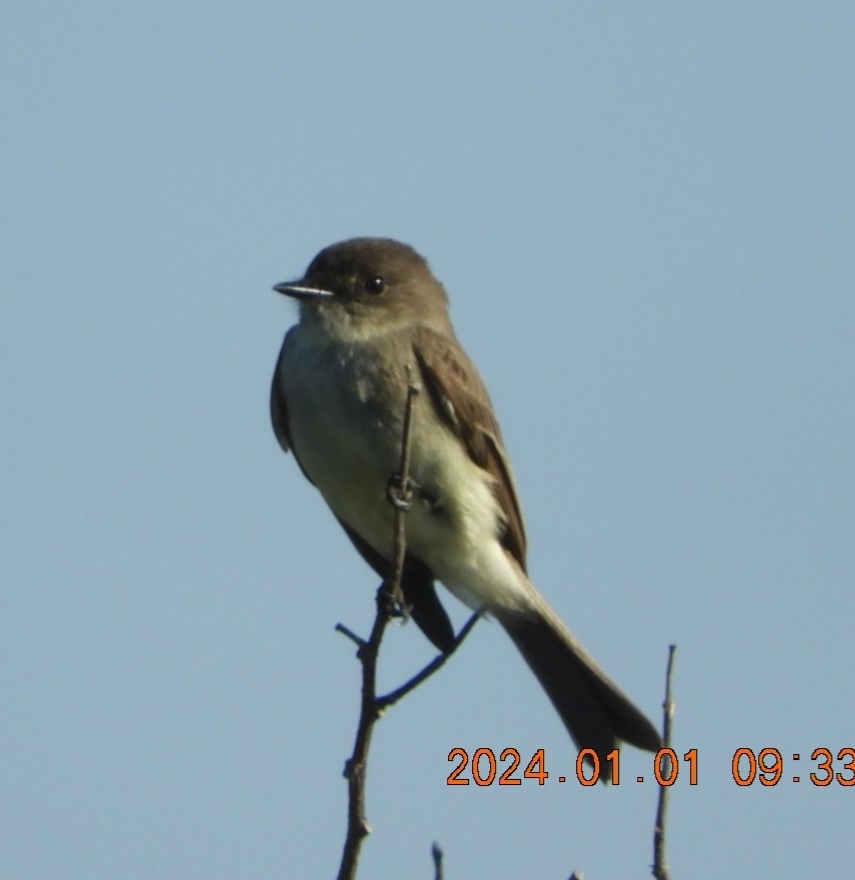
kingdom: Animalia
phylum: Chordata
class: Aves
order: Passeriformes
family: Tyrannidae
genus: Sayornis
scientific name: Sayornis phoebe
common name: Eastern phoebe
